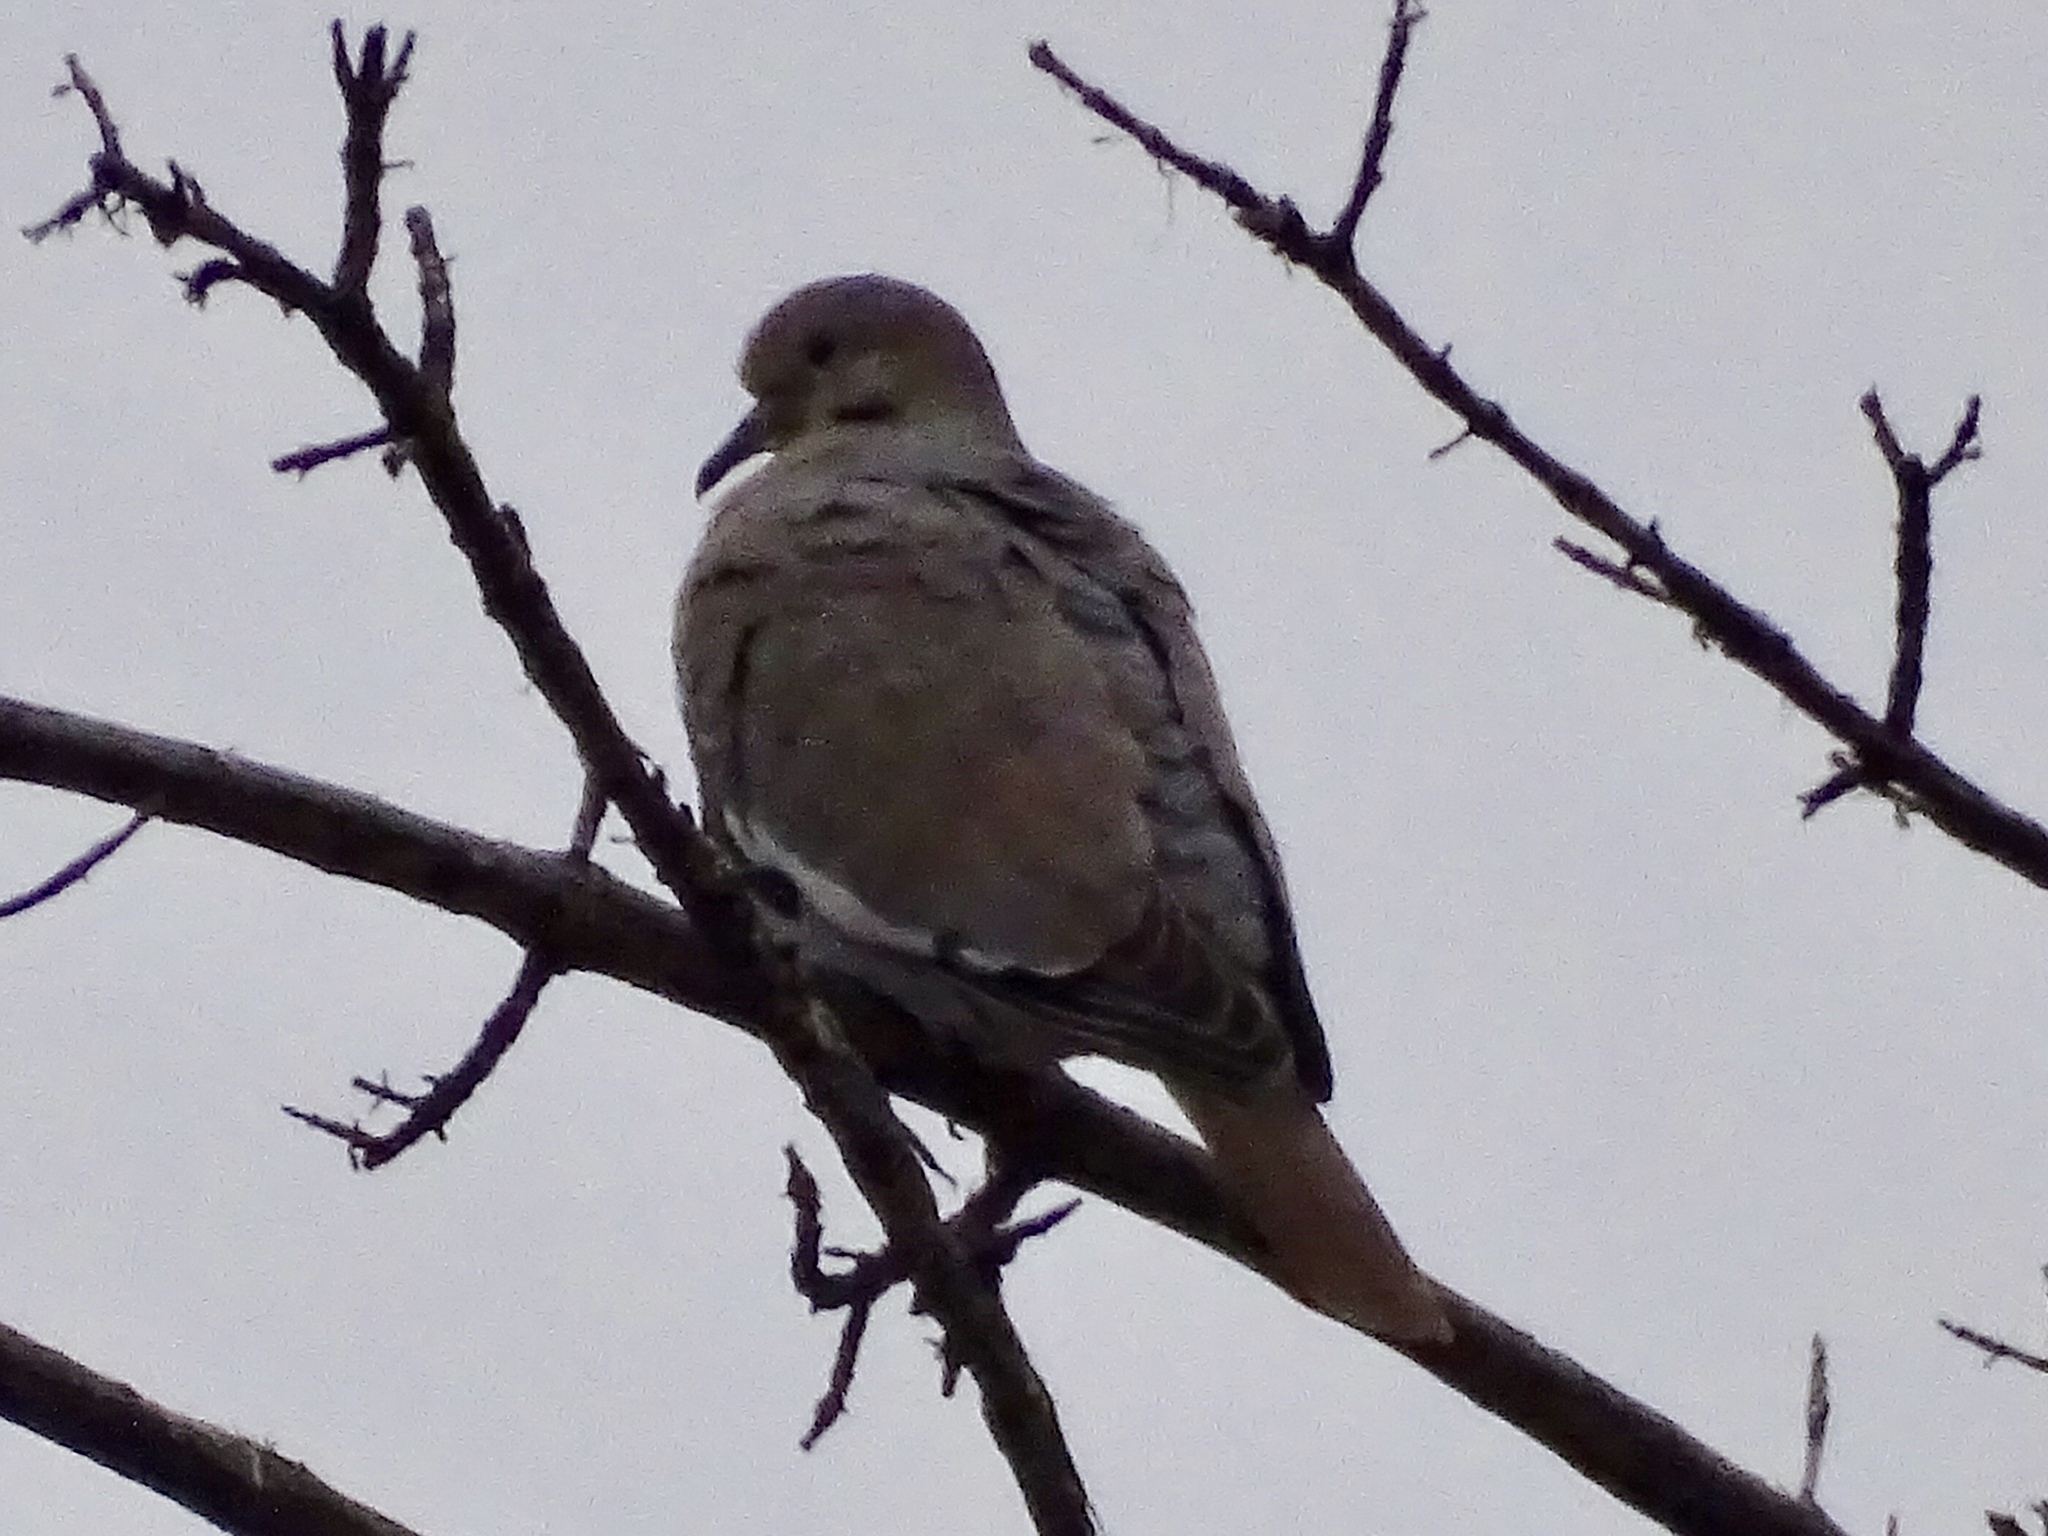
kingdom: Animalia
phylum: Chordata
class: Aves
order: Columbiformes
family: Columbidae
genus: Zenaida
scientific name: Zenaida asiatica
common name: White-winged dove
